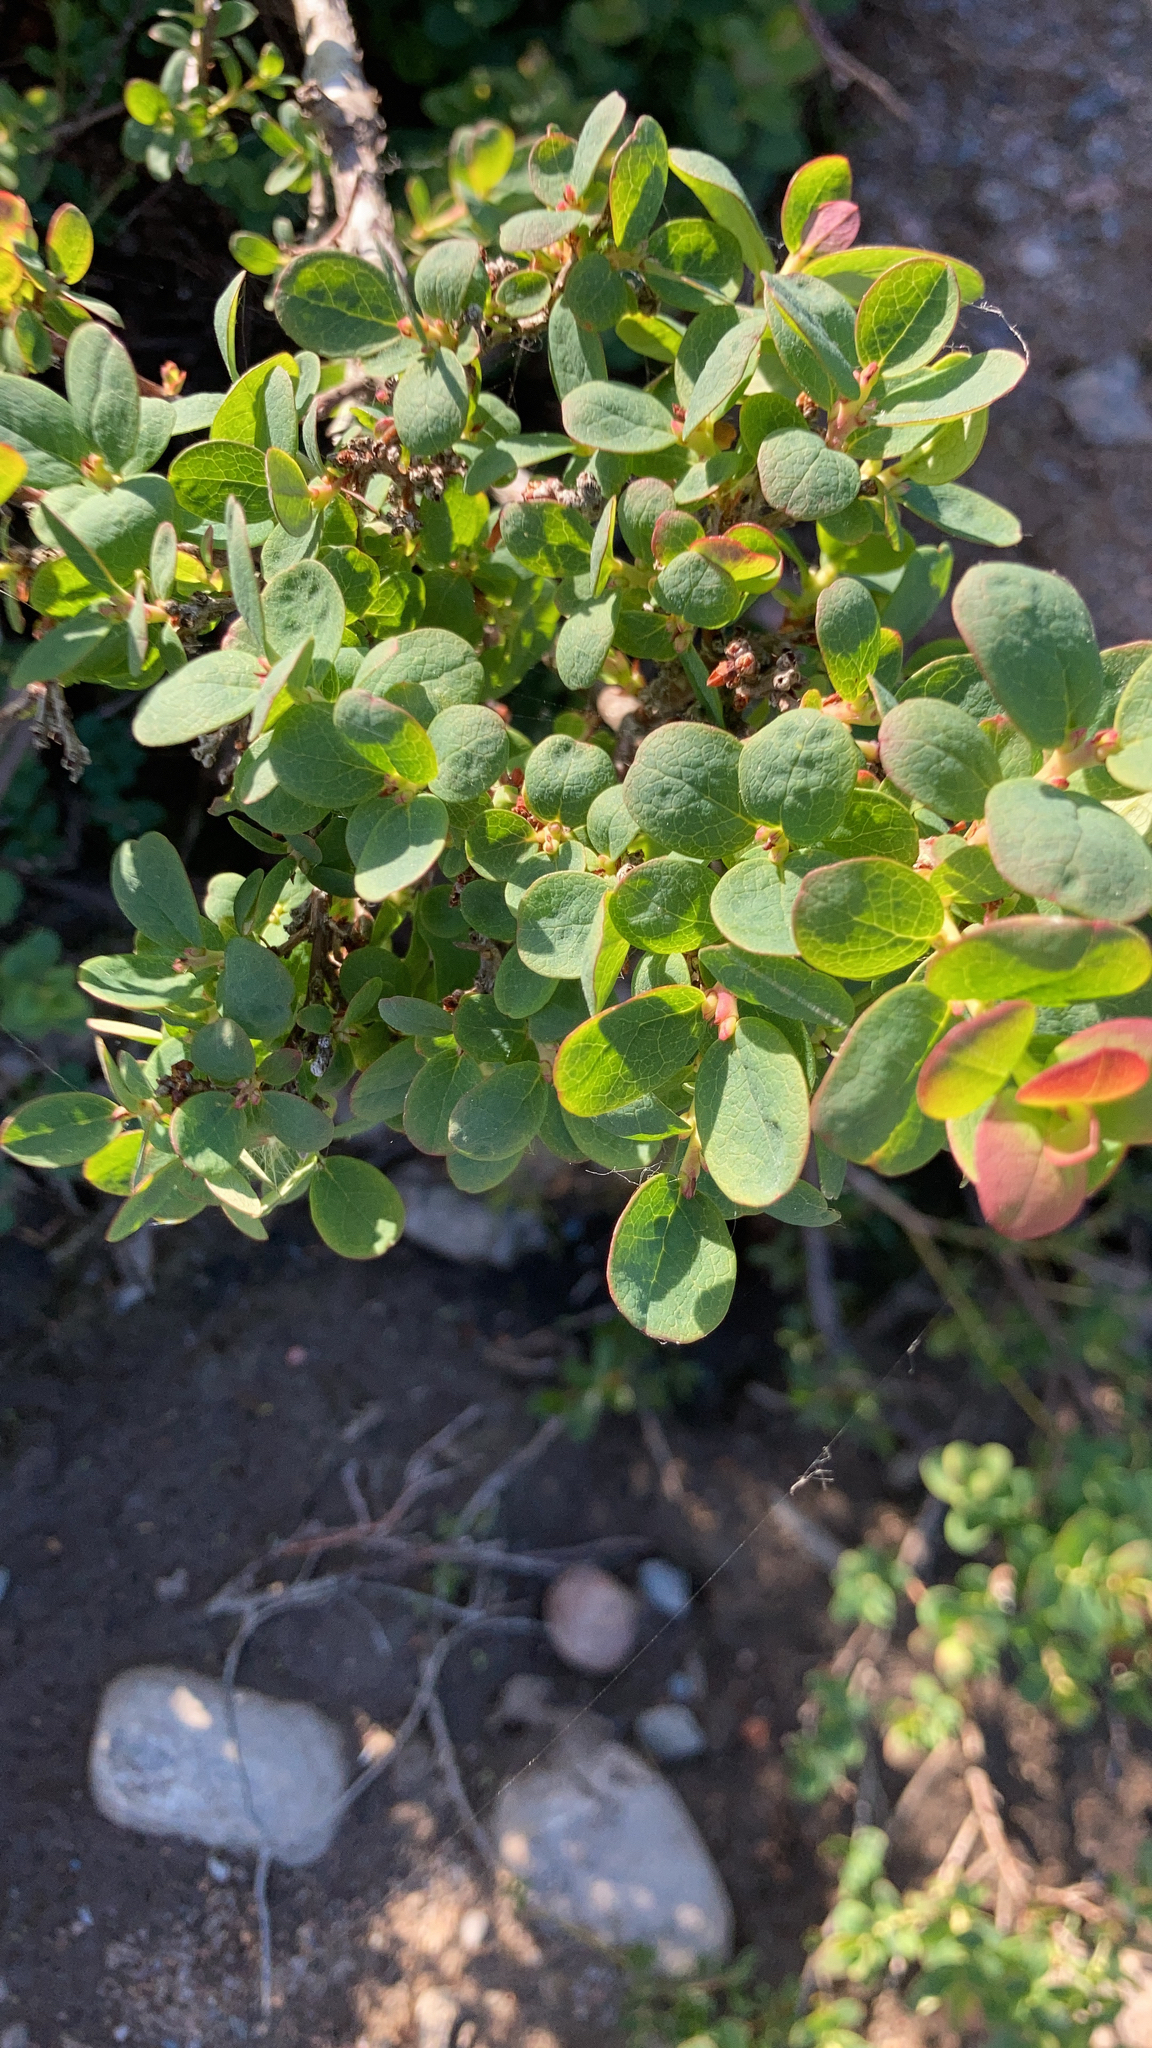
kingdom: Plantae
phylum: Tracheophyta
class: Magnoliopsida
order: Ericales
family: Ericaceae
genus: Vaccinium
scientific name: Vaccinium uliginosum
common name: Bog bilberry
